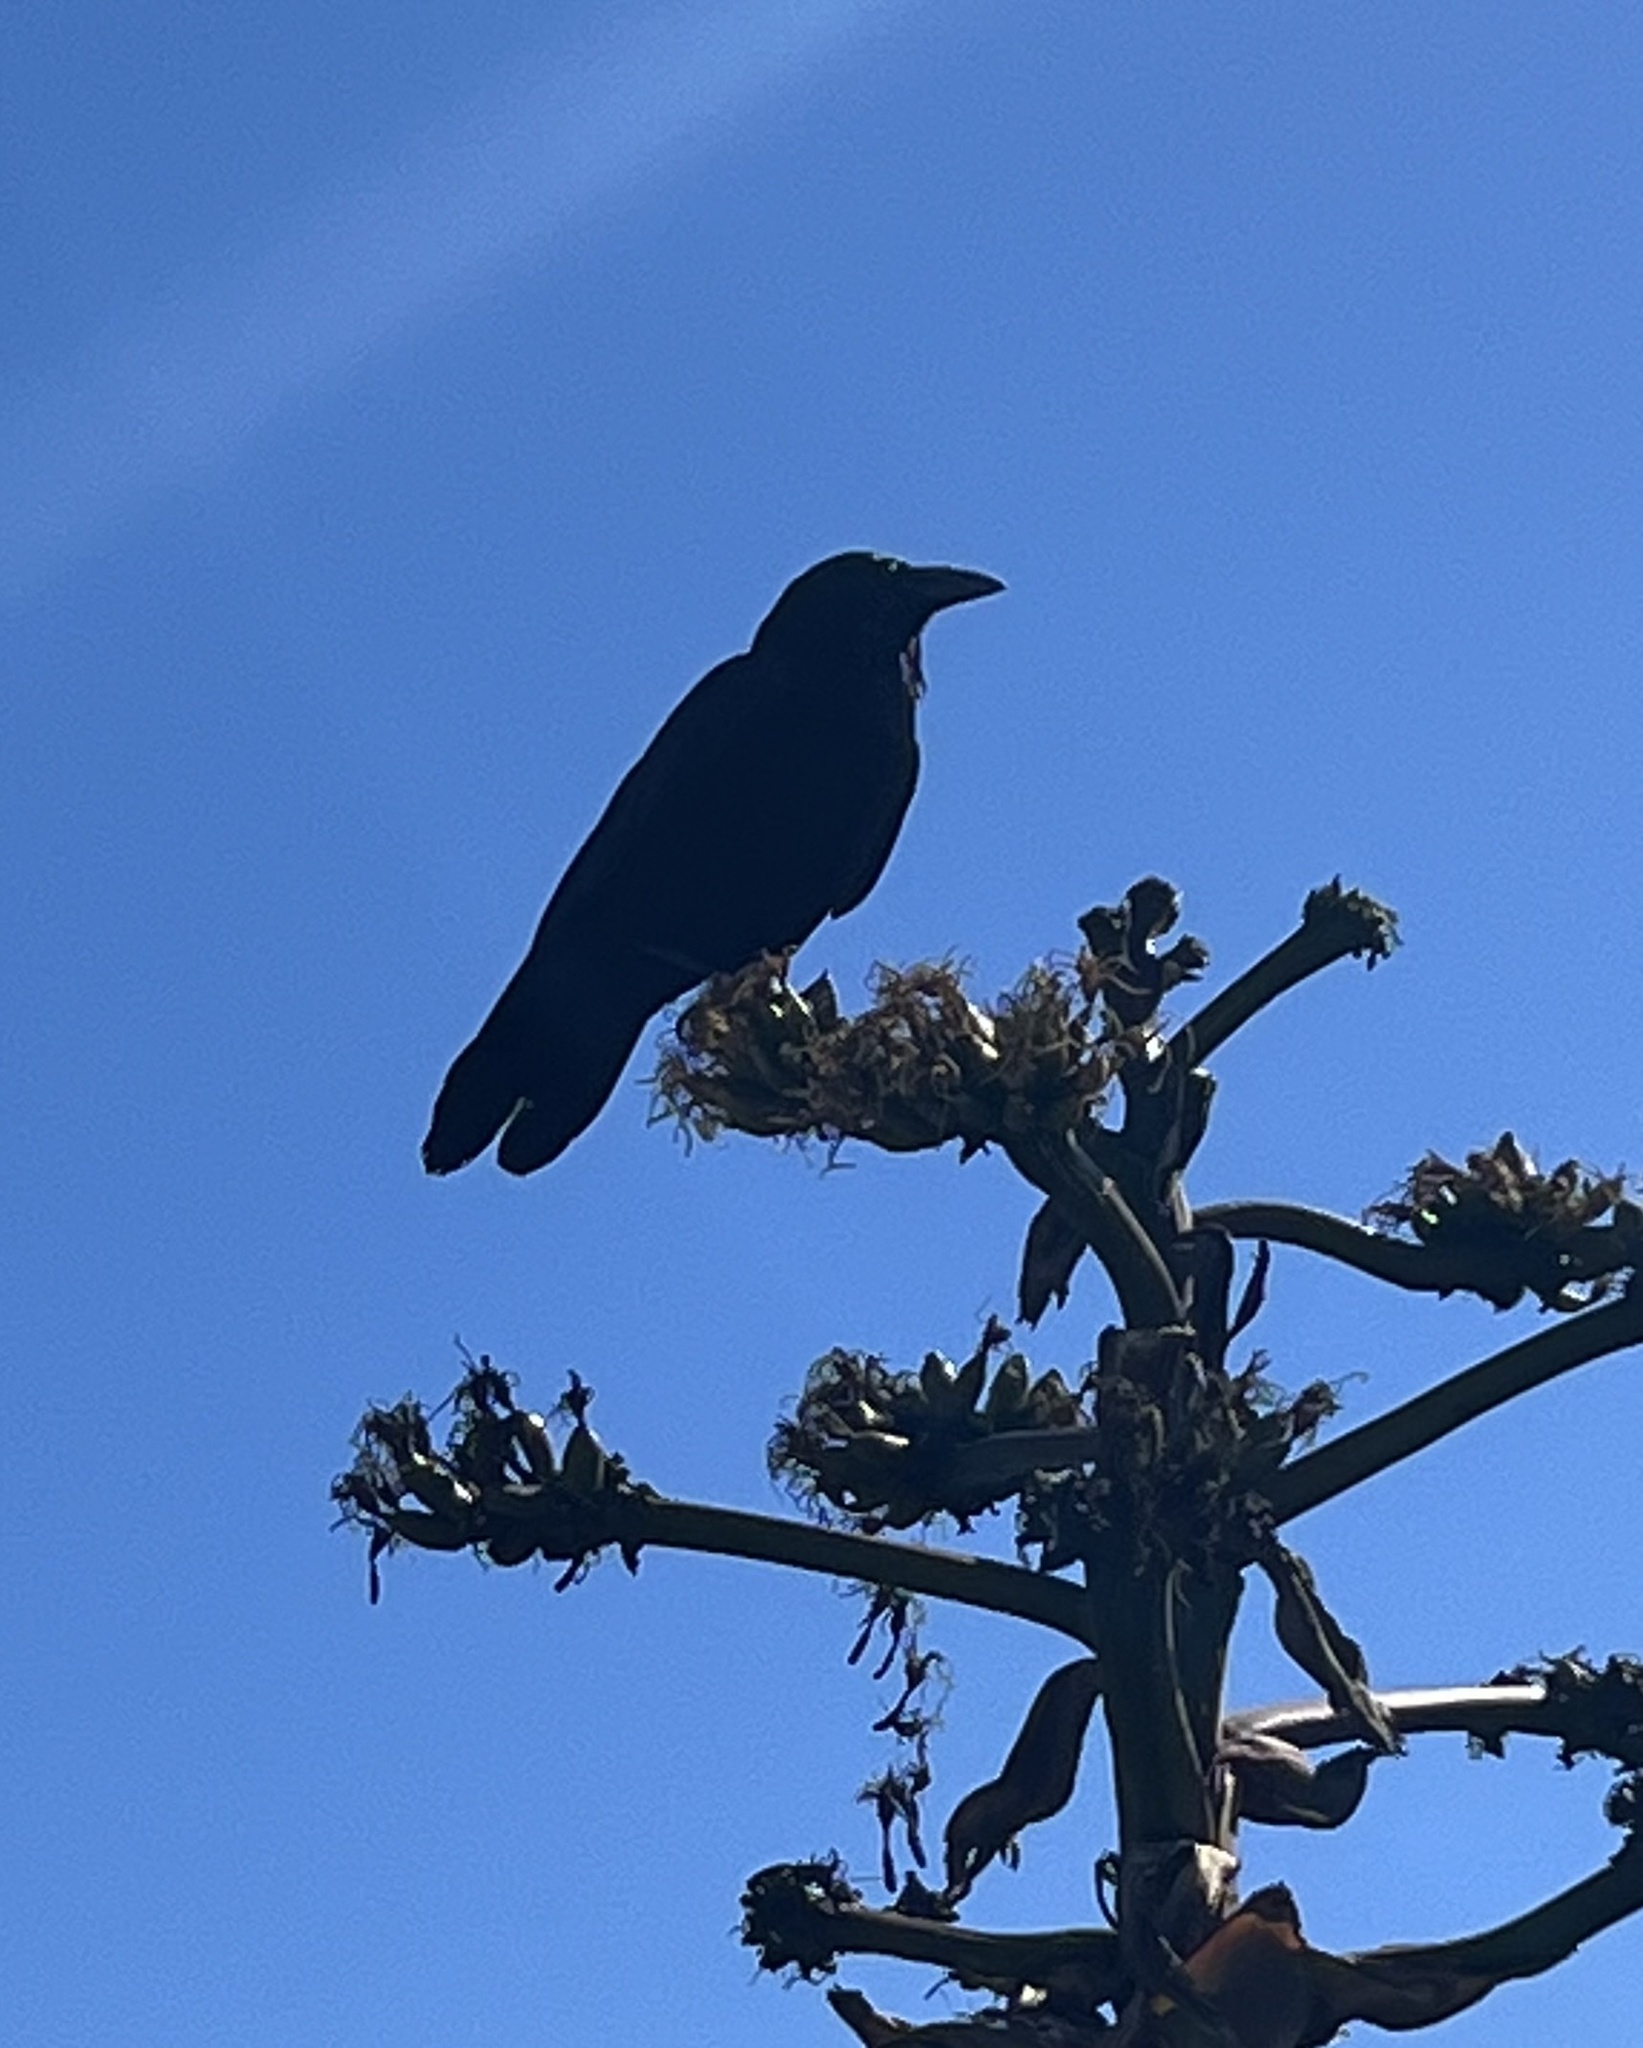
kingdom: Animalia
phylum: Chordata
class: Aves
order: Passeriformes
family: Corvidae
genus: Corvus
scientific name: Corvus corax
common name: Common raven
